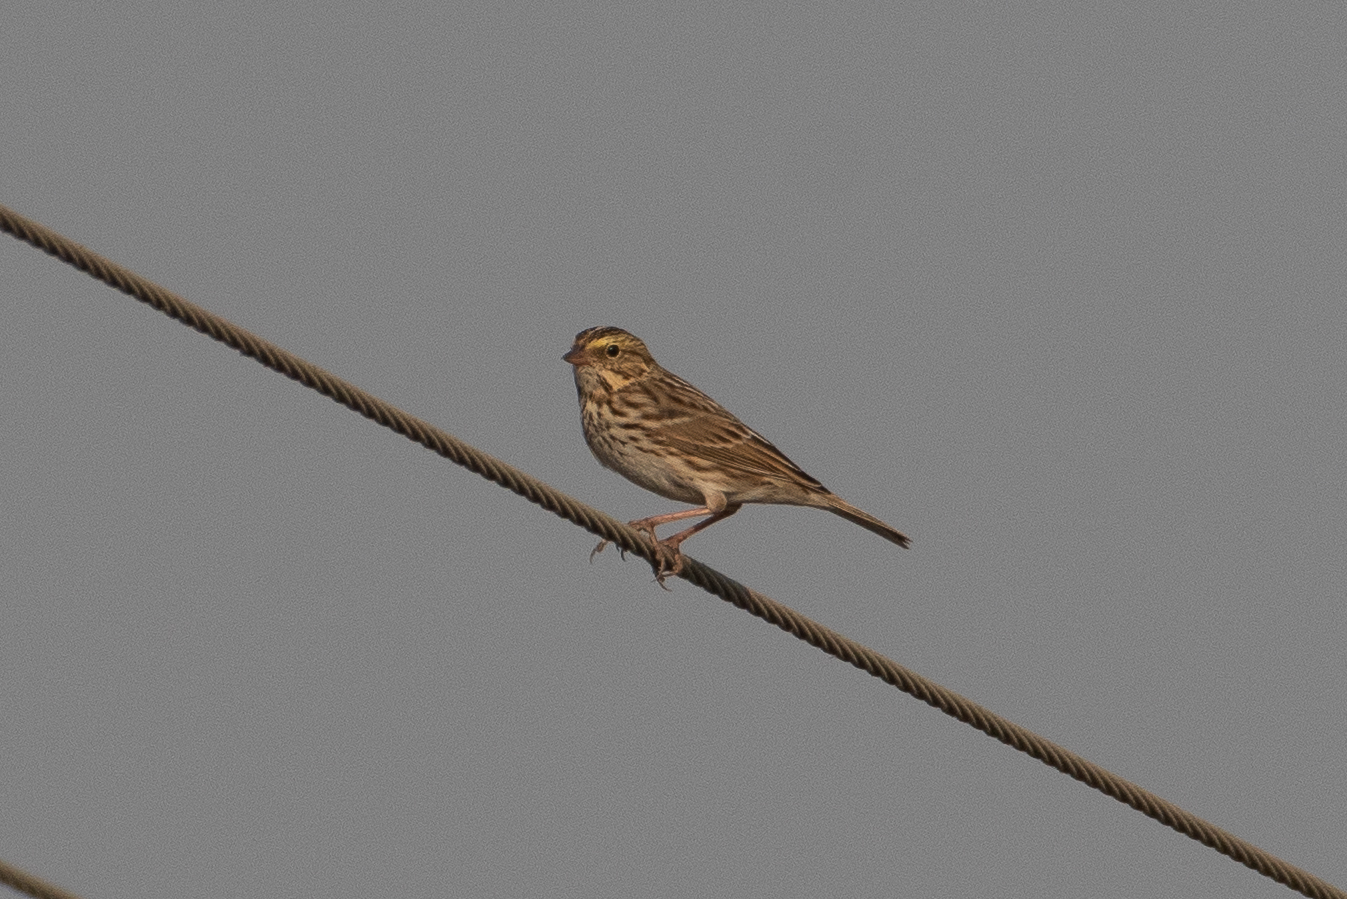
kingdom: Animalia
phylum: Chordata
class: Aves
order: Passeriformes
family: Passerellidae
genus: Passerculus
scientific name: Passerculus sandwichensis
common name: Savannah sparrow
